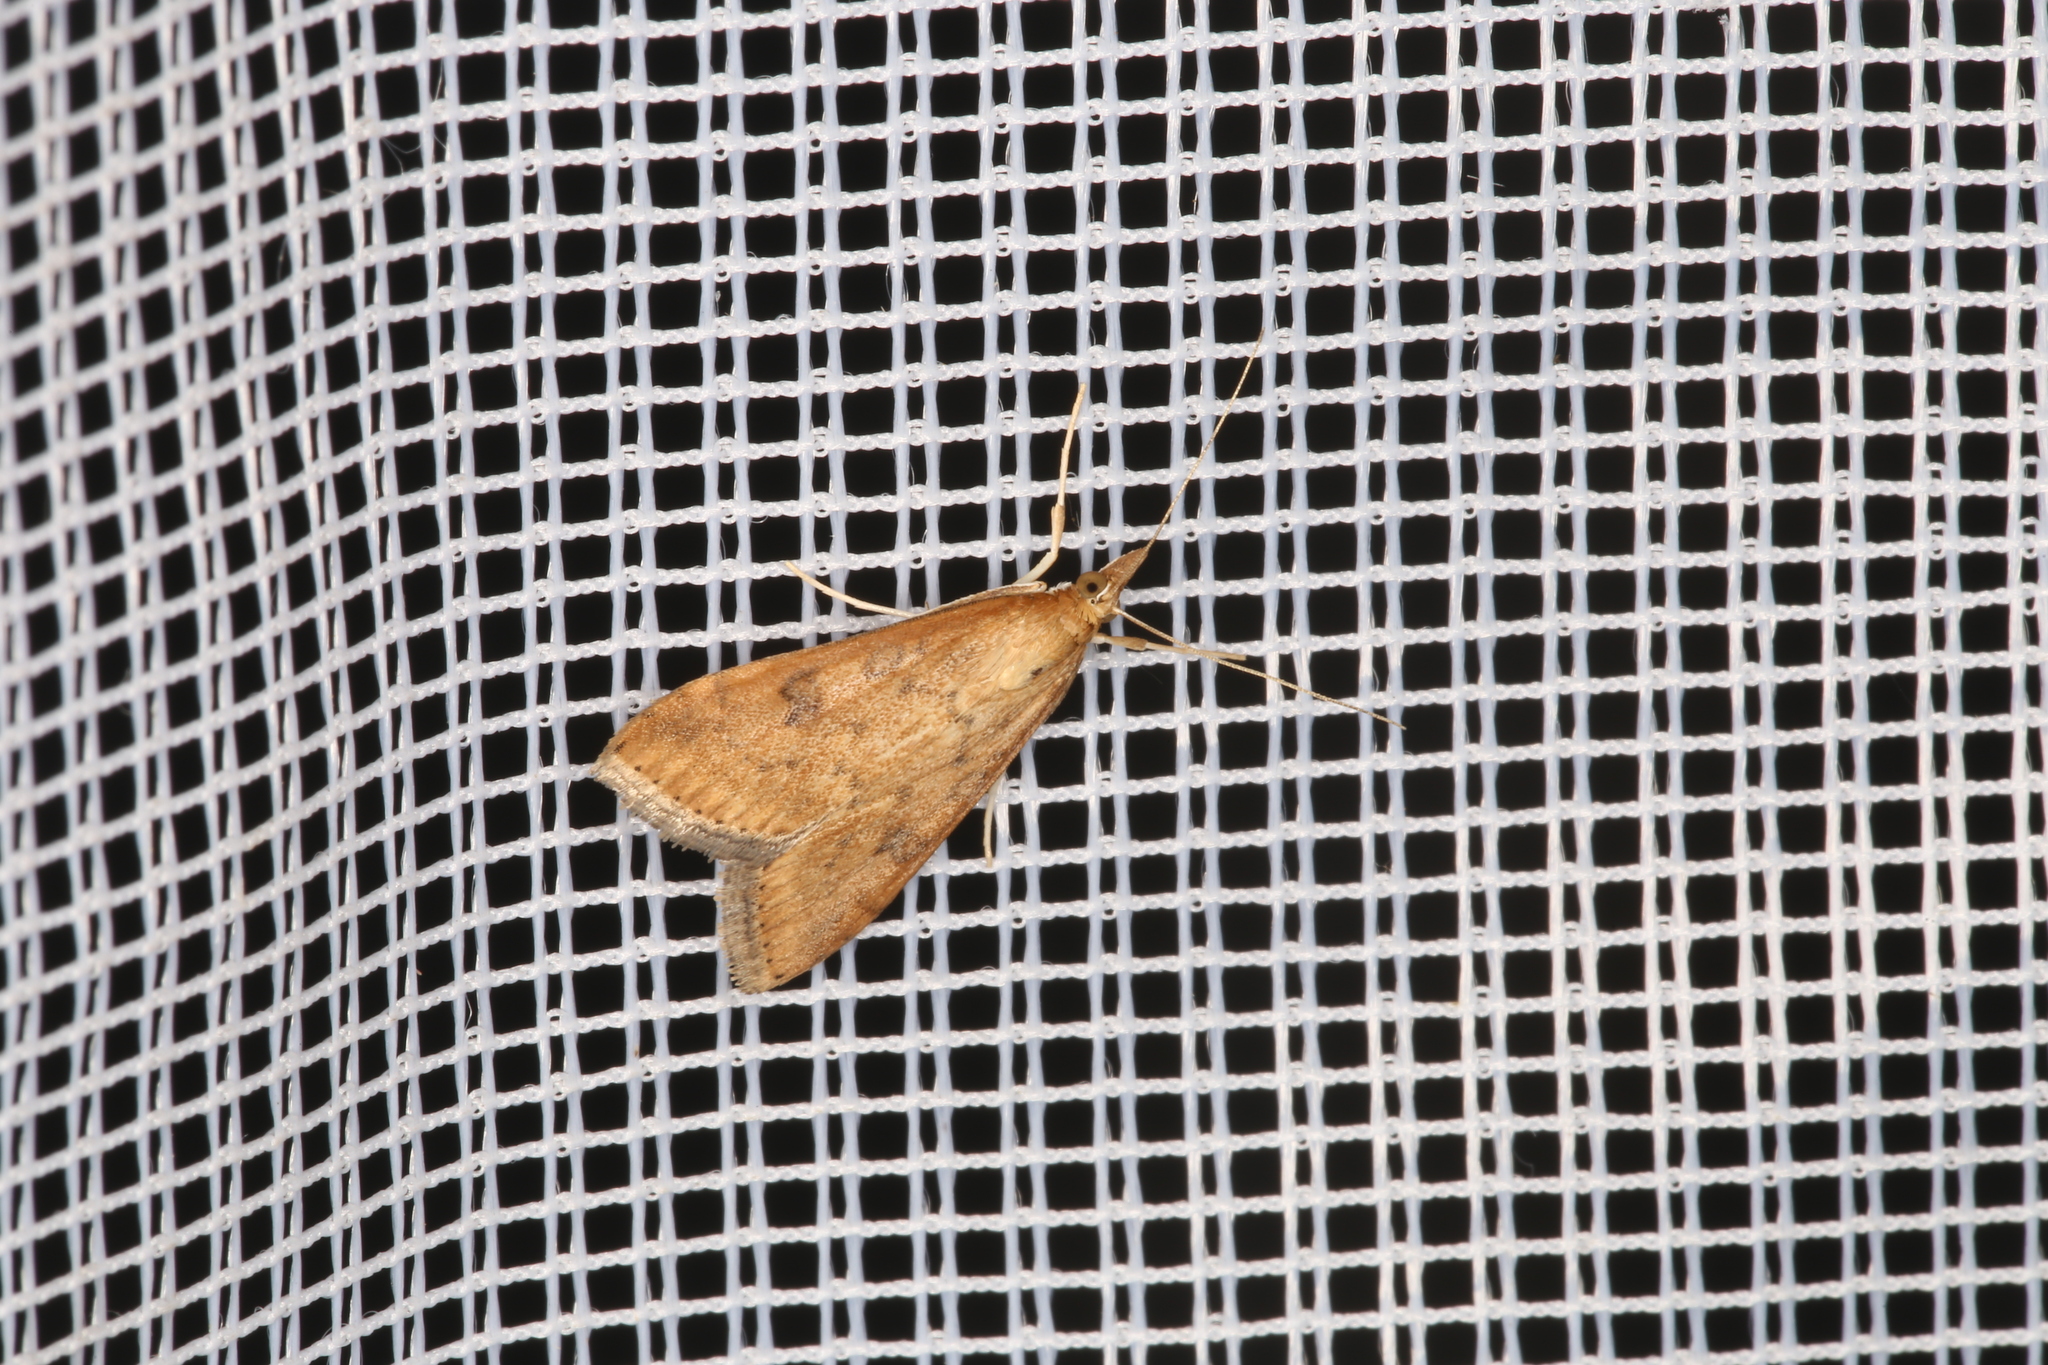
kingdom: Animalia
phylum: Arthropoda
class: Insecta
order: Lepidoptera
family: Crambidae
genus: Udea
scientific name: Udea ferrugalis
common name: Rusty dot
